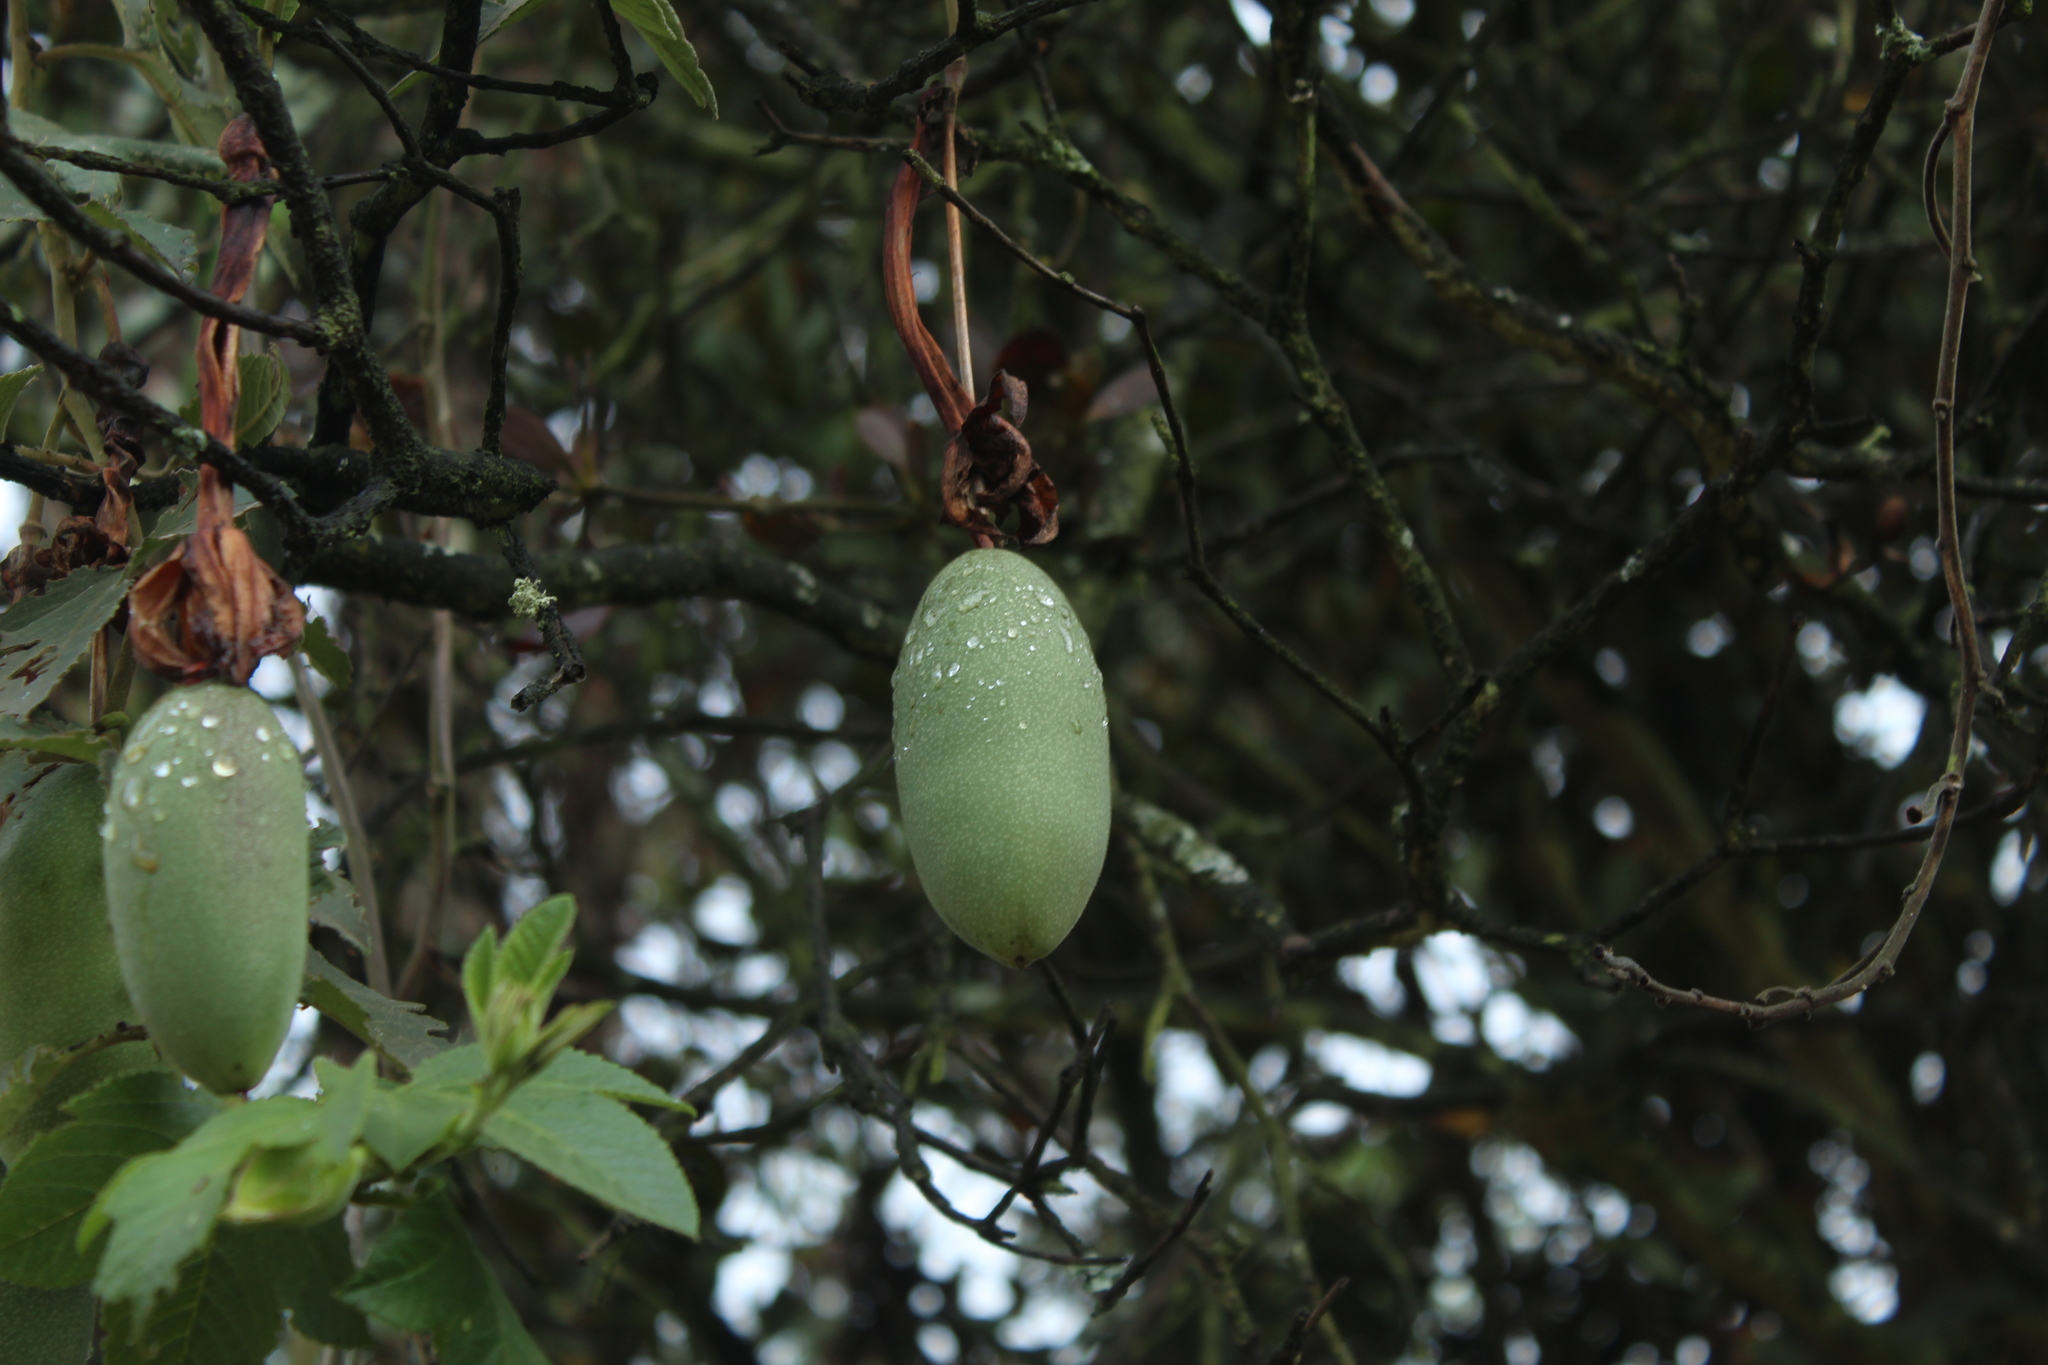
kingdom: Plantae
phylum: Tracheophyta
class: Magnoliopsida
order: Malpighiales
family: Passifloraceae
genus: Passiflora
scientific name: Passiflora tripartita
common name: Banana poka
